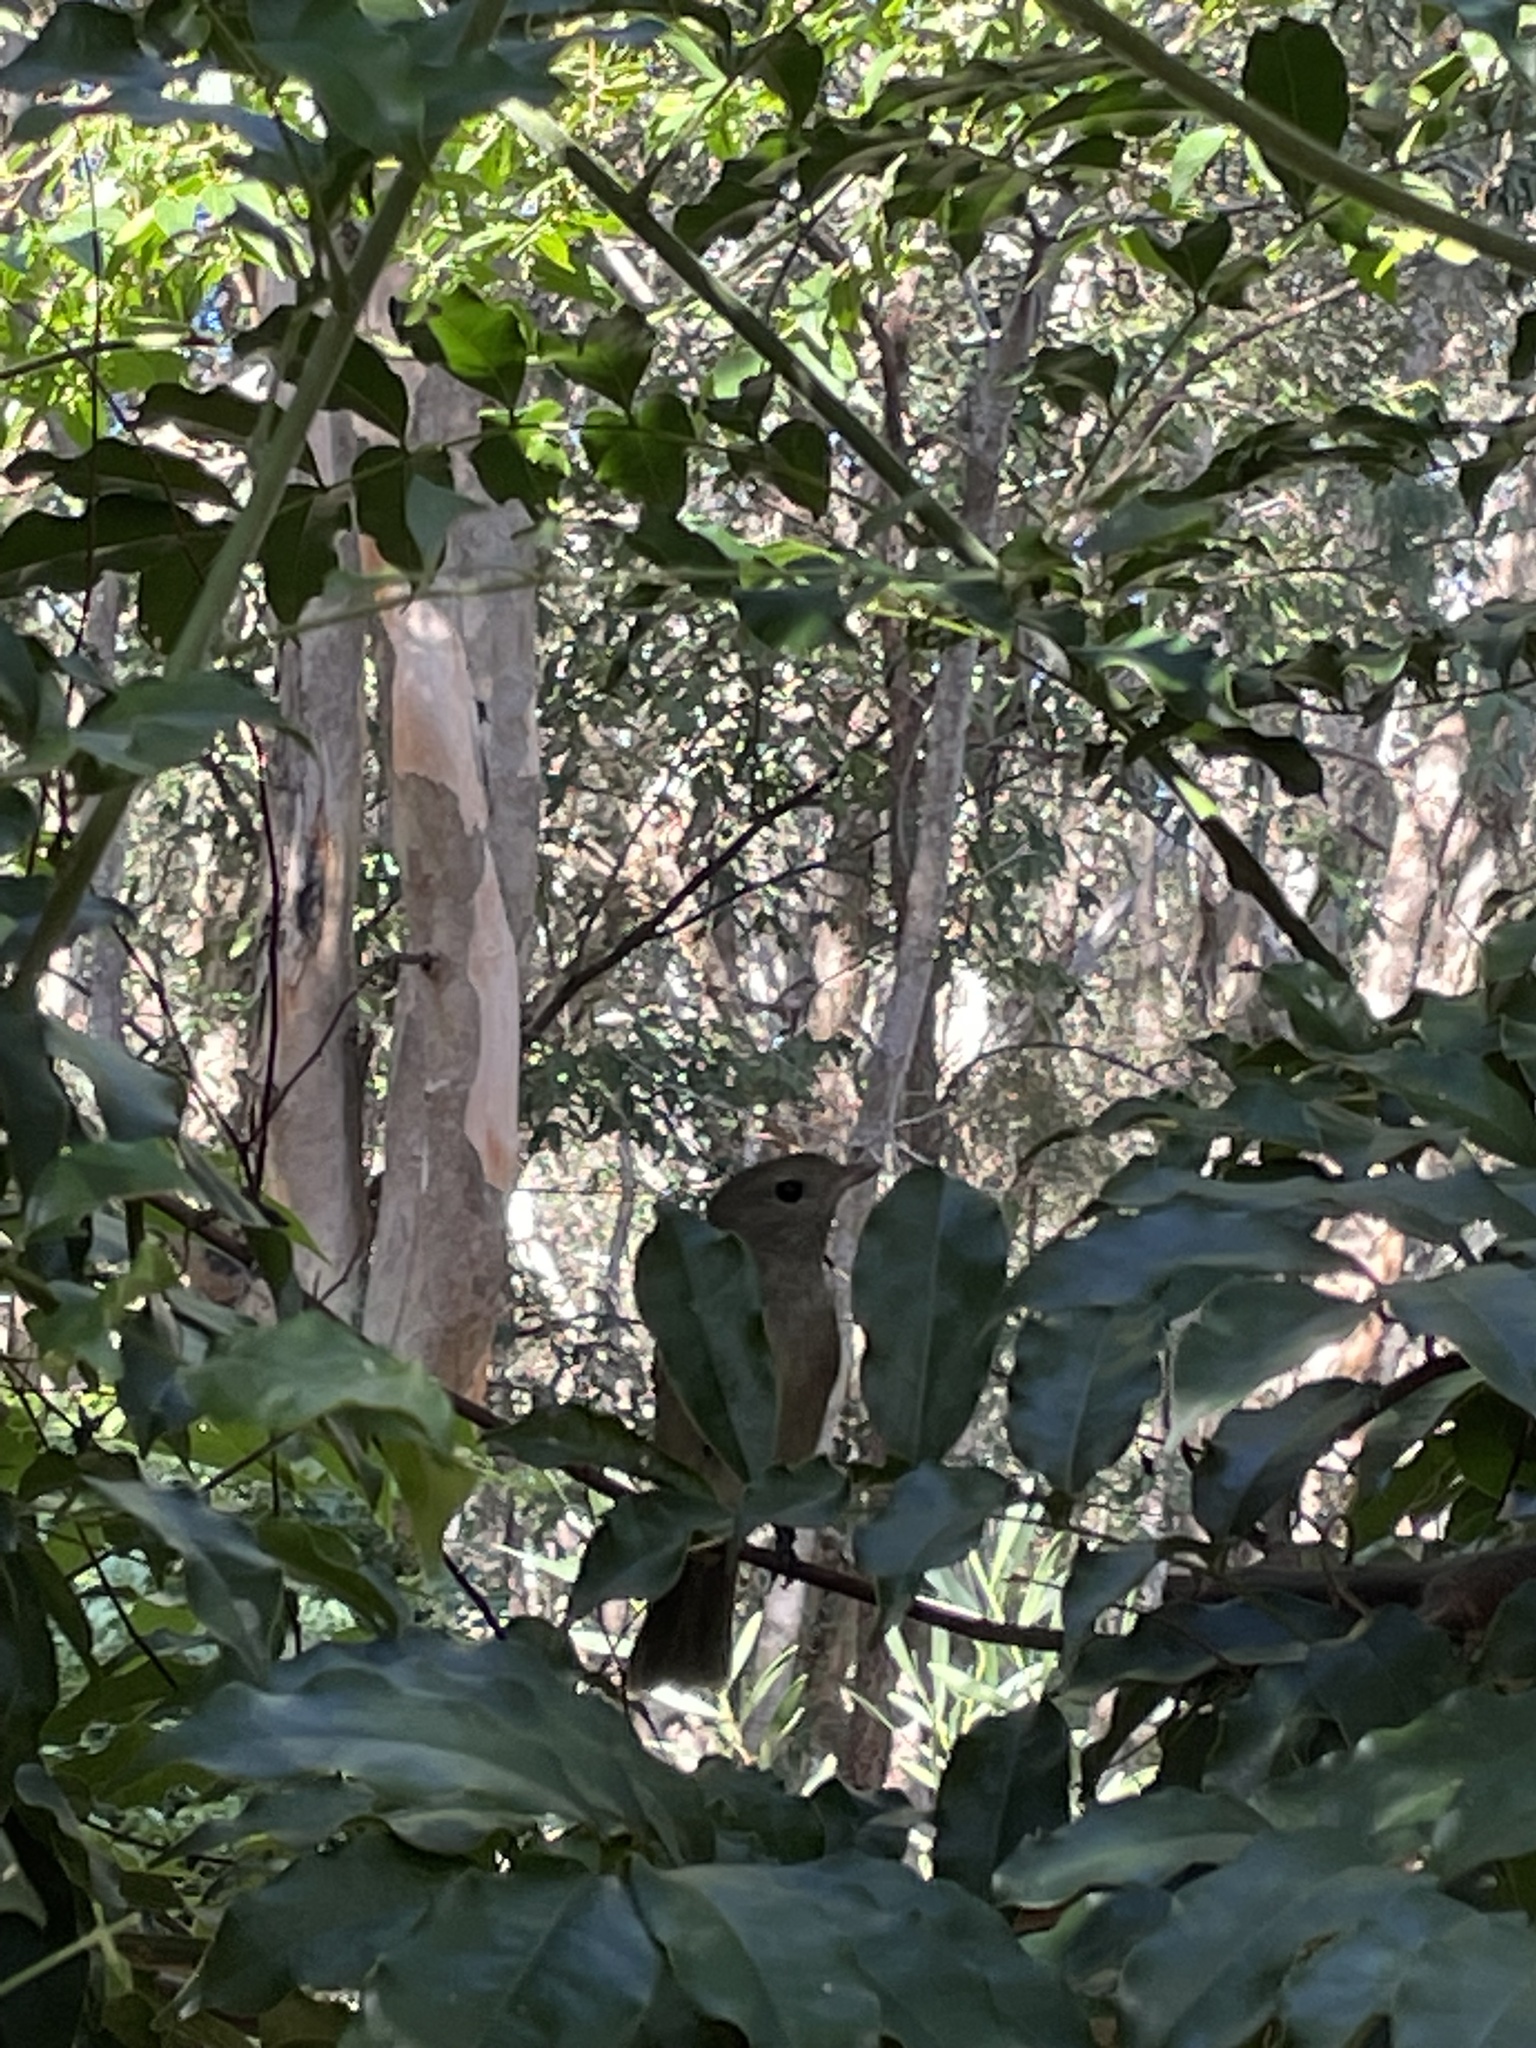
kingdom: Animalia
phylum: Chordata
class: Aves
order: Passeriformes
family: Pachycephalidae
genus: Pachycephala
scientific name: Pachycephala pectoralis
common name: Australian golden whistler
